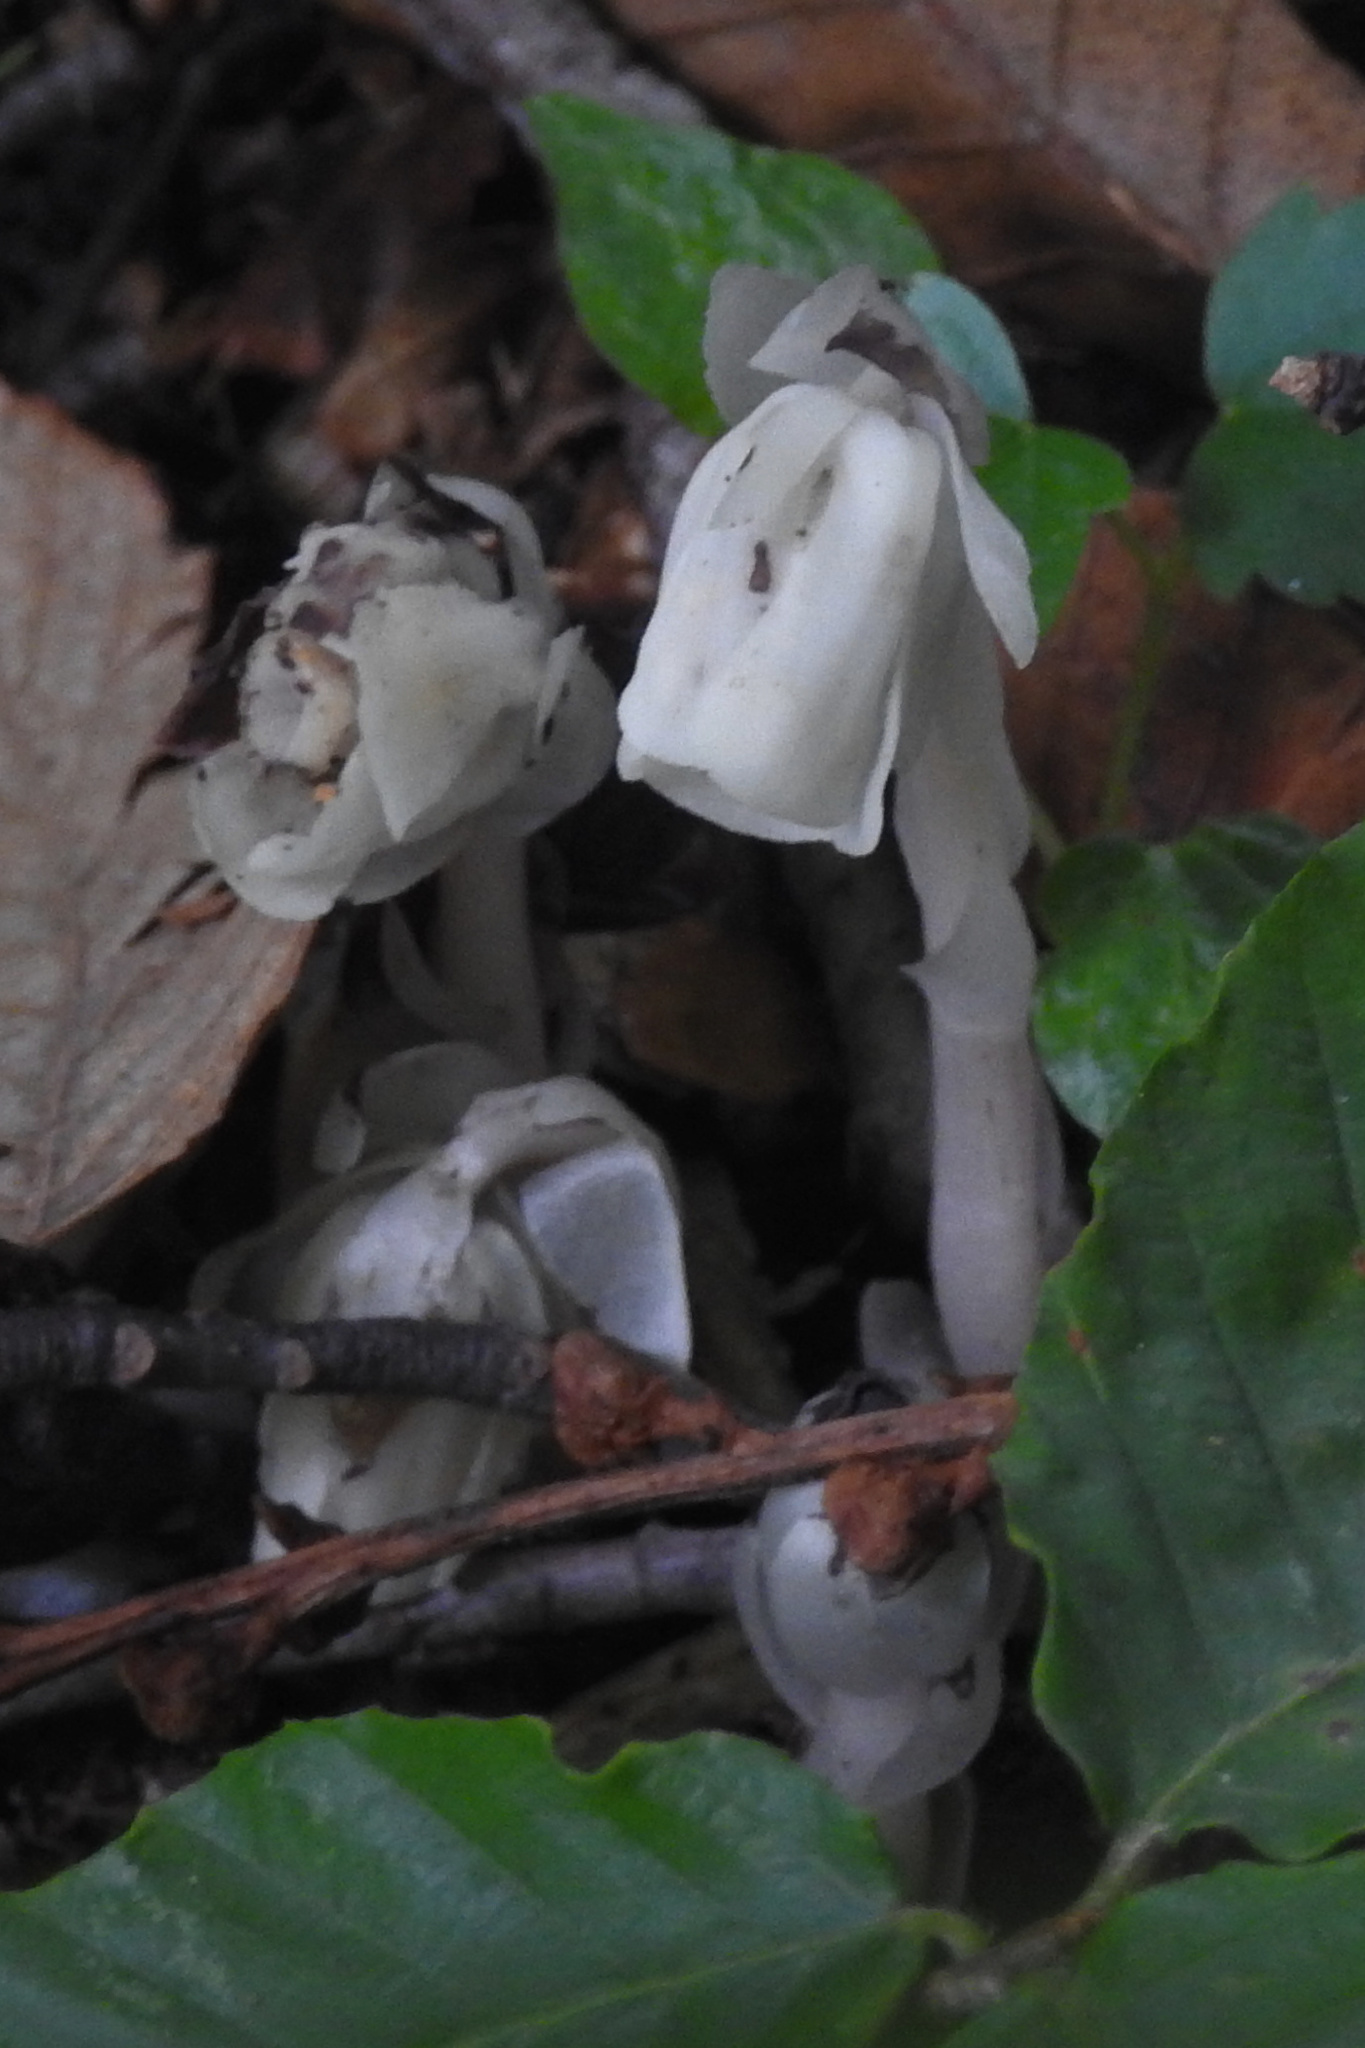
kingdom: Plantae
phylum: Tracheophyta
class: Magnoliopsida
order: Ericales
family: Ericaceae
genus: Monotropa
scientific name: Monotropa uniflora
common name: Convulsion root
